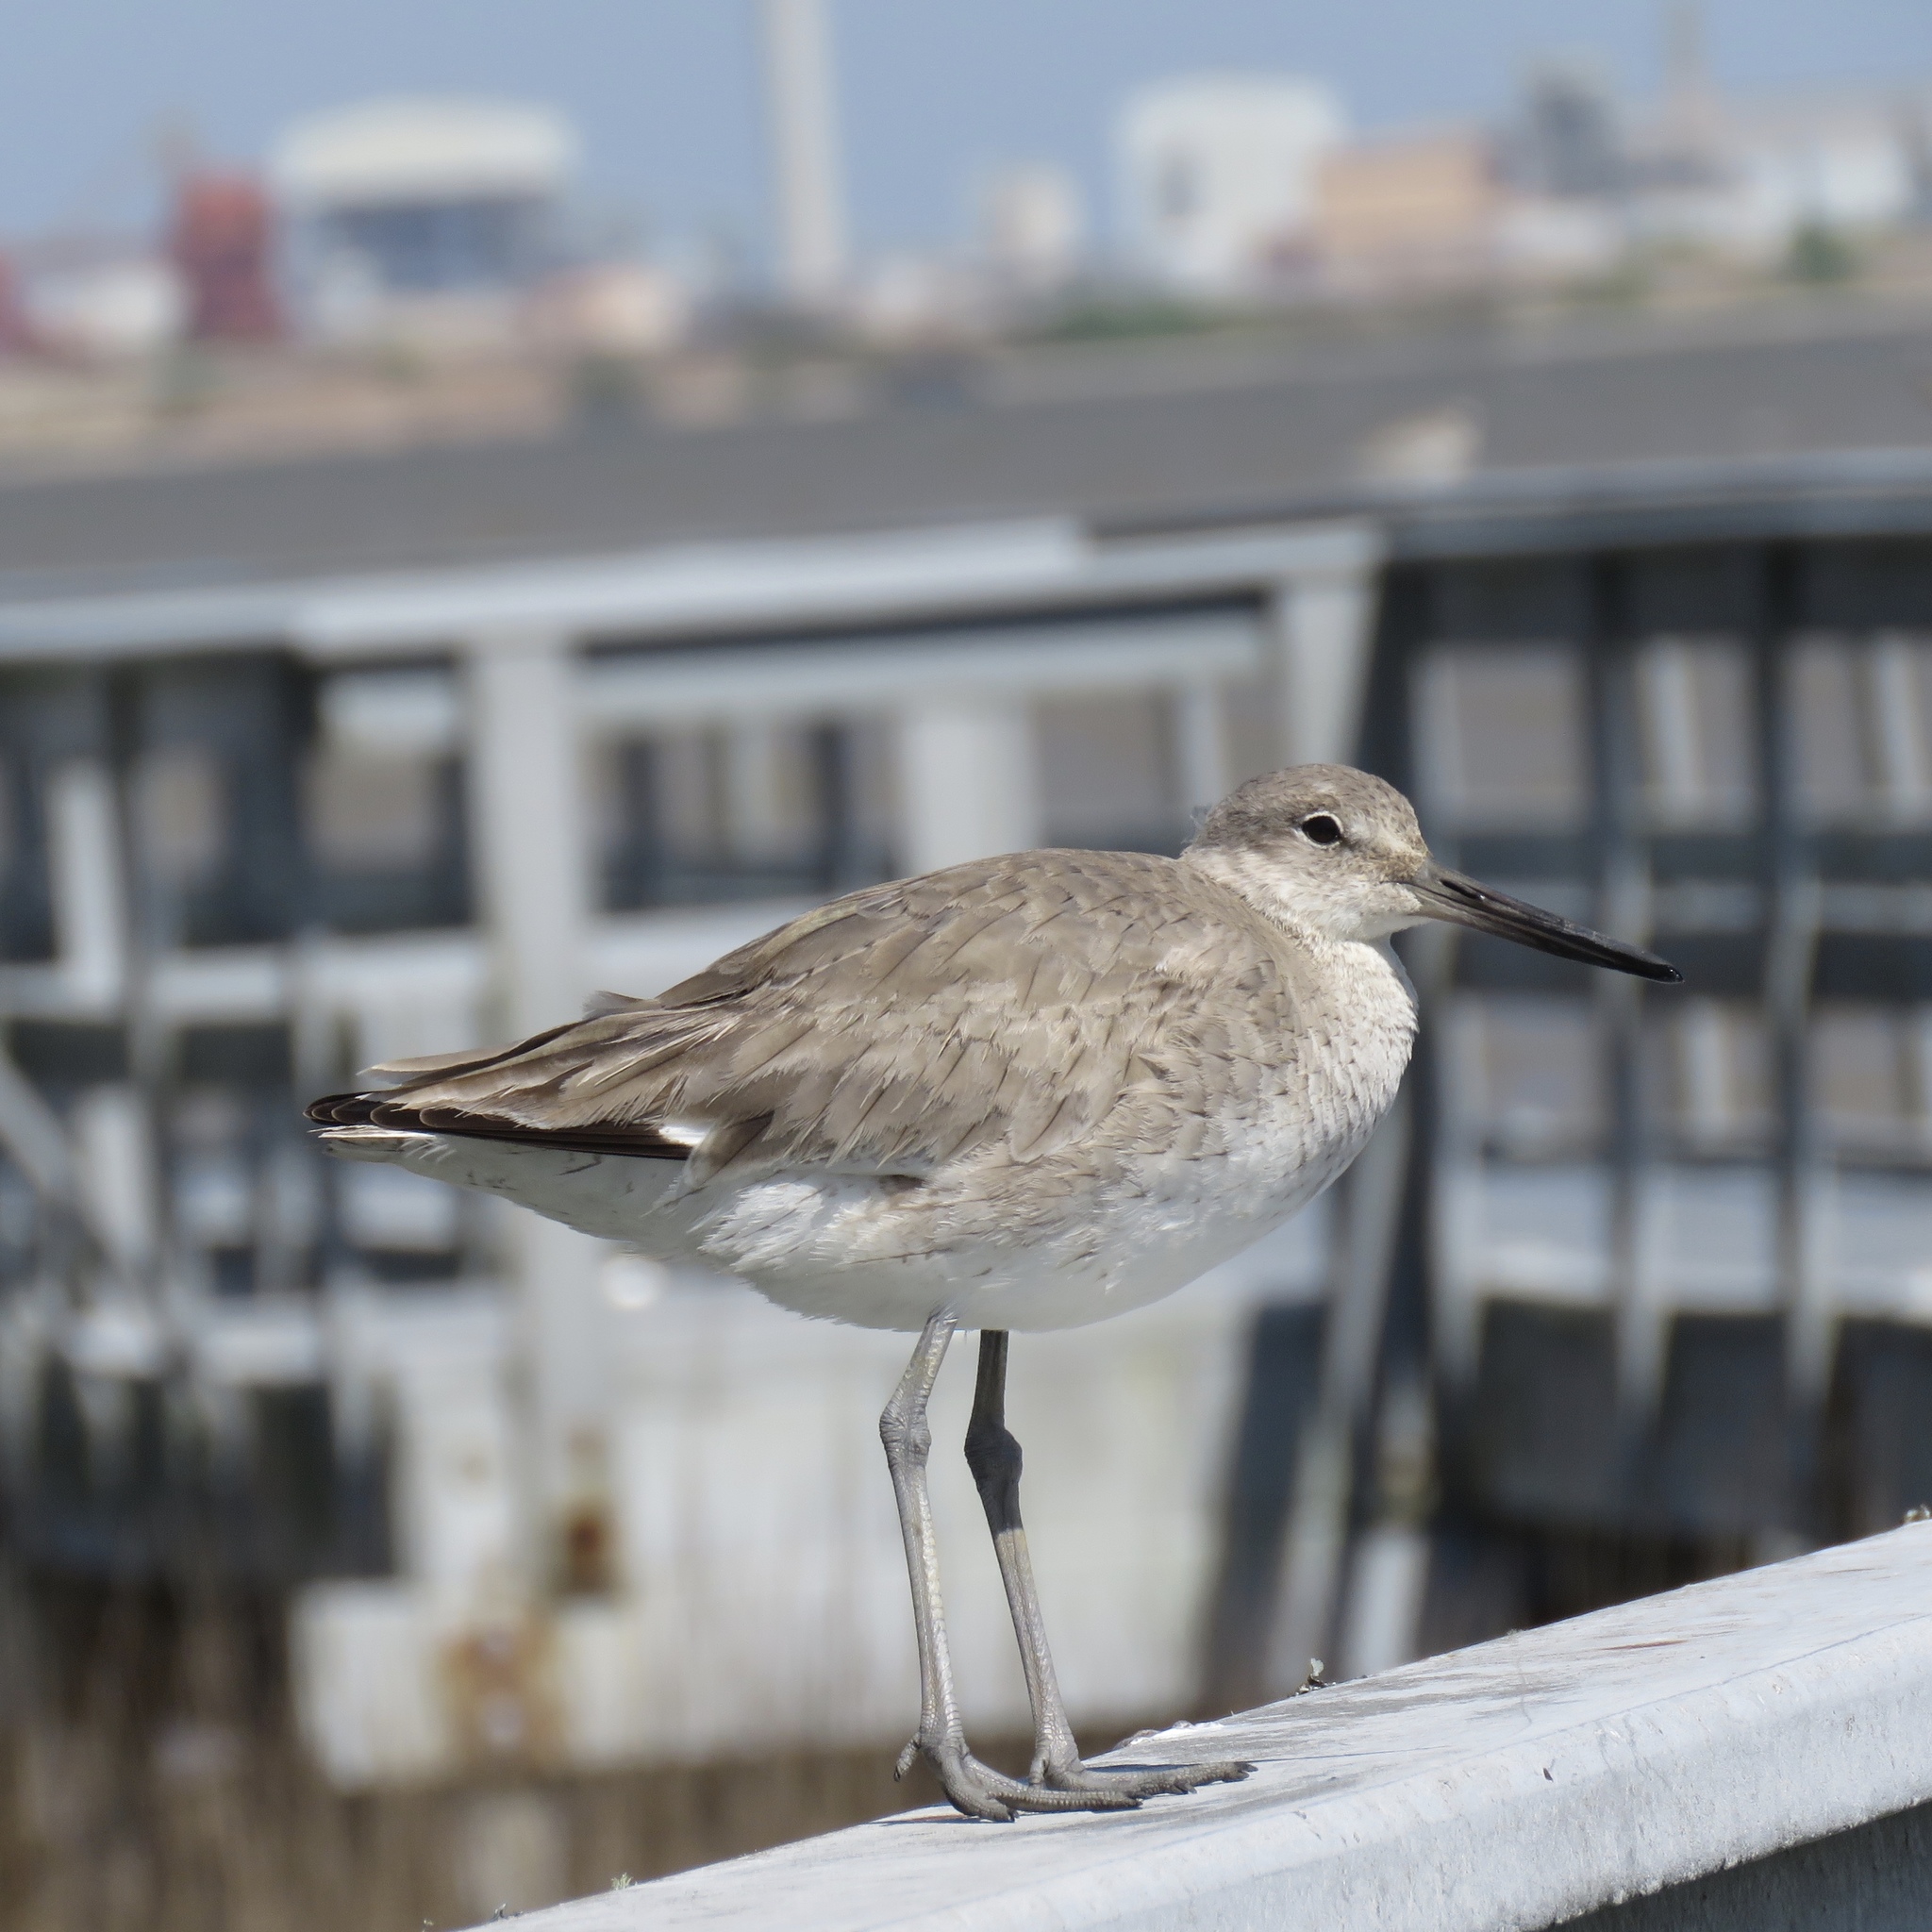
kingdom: Animalia
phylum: Chordata
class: Aves
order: Charadriiformes
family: Scolopacidae
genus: Tringa
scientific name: Tringa semipalmata
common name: Willet
